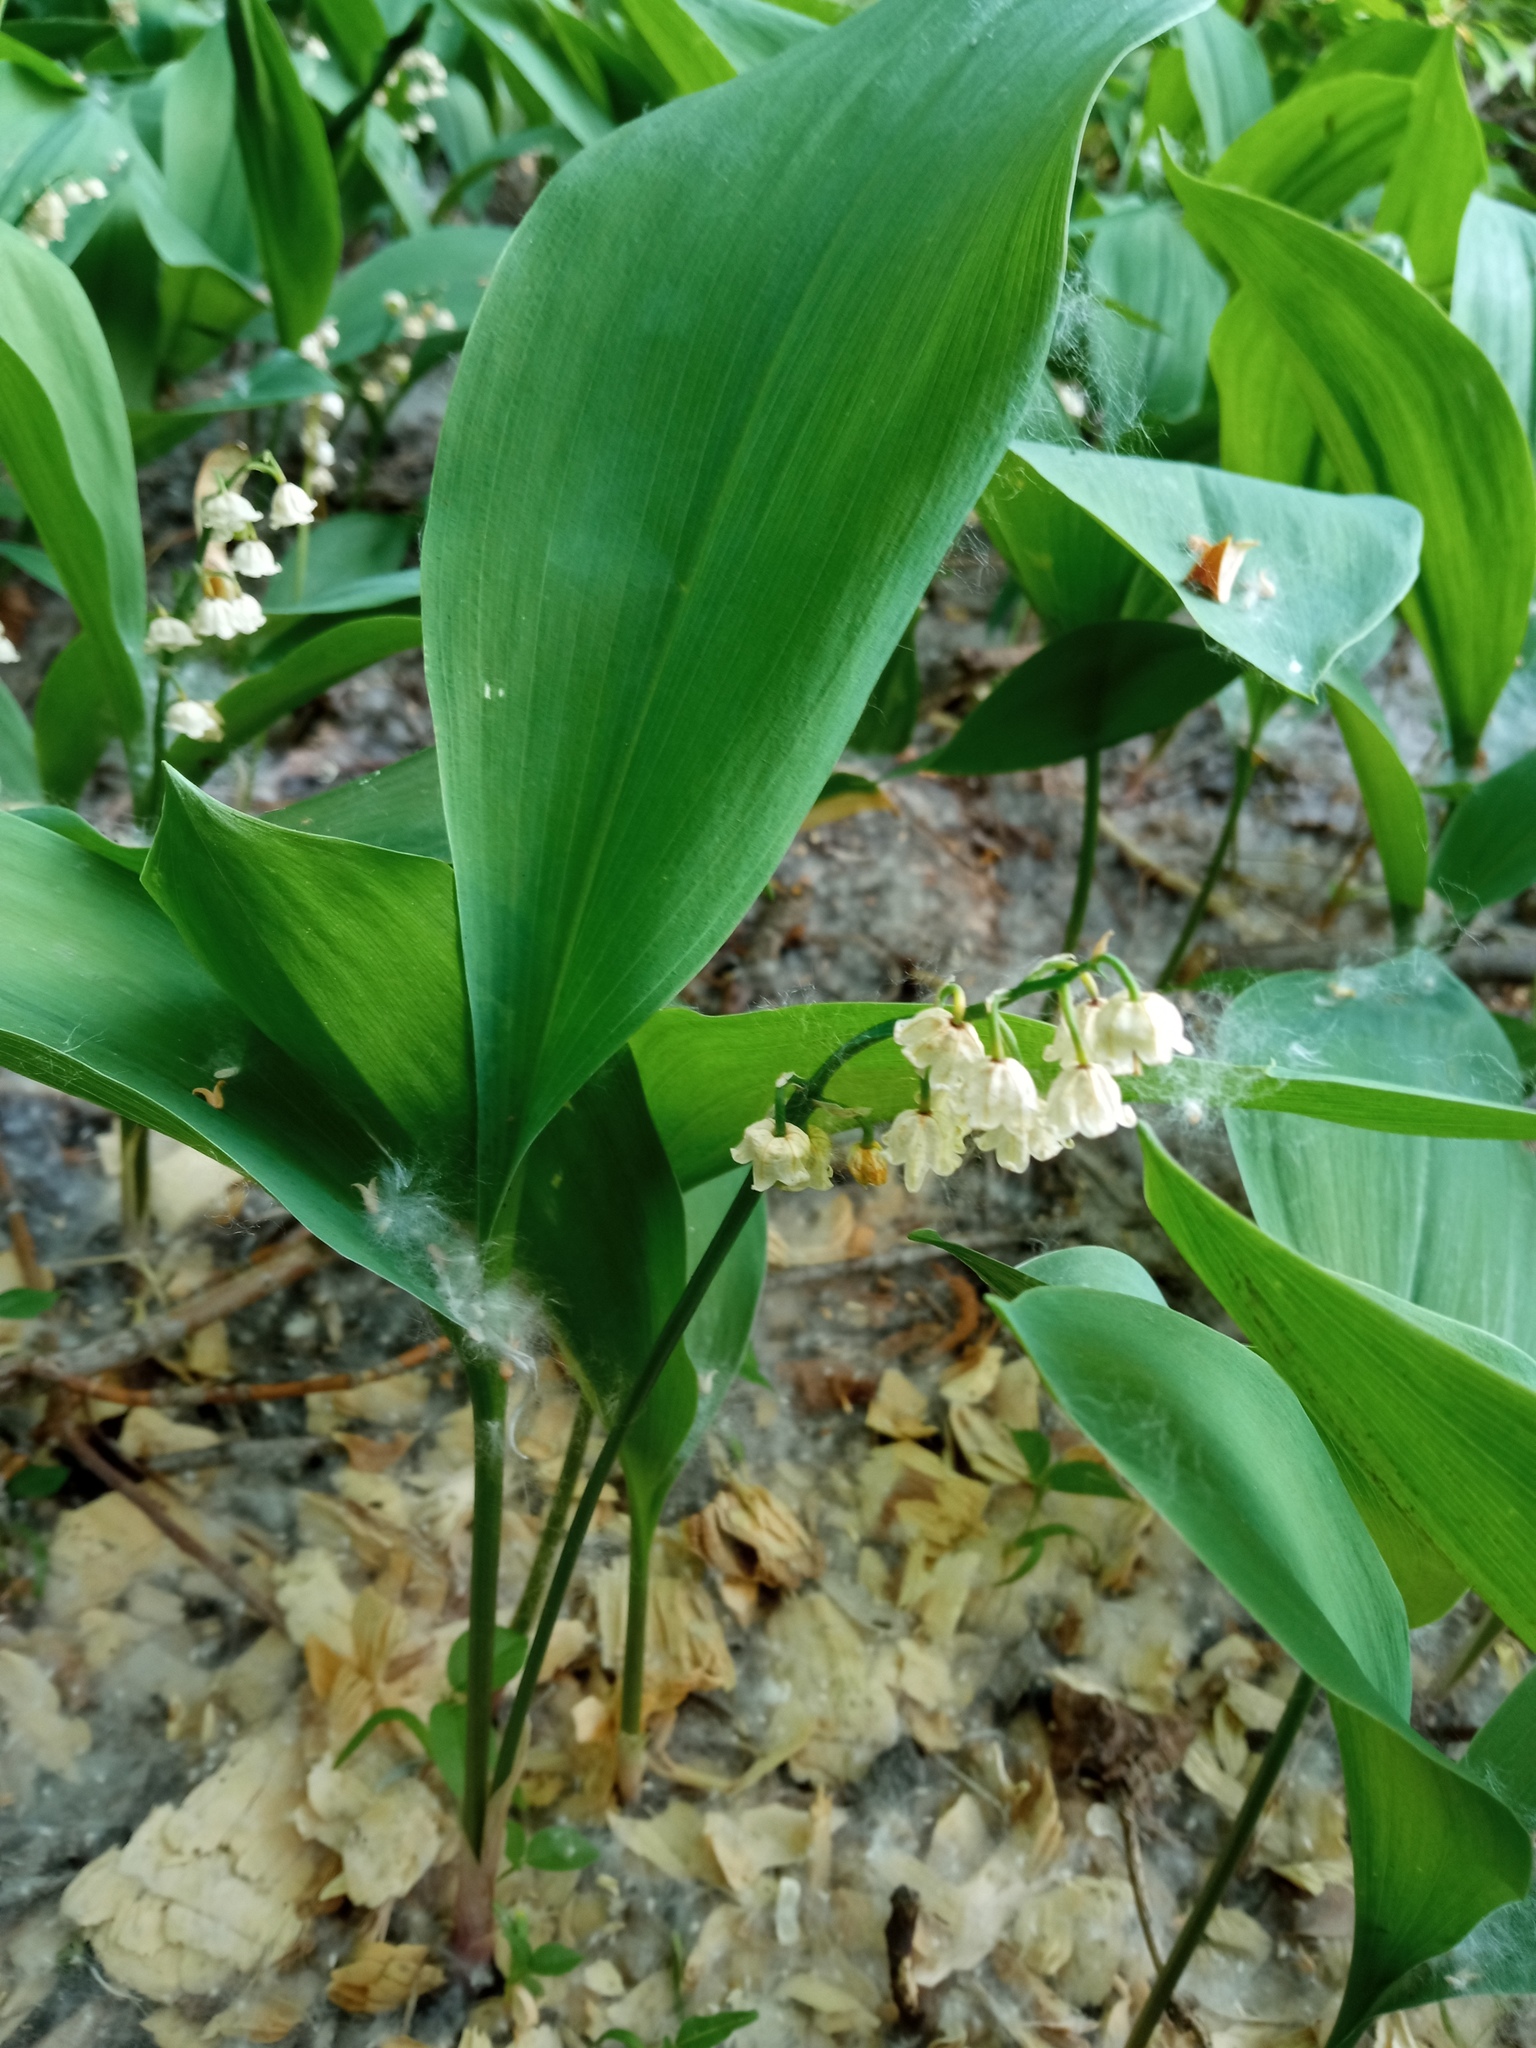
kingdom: Plantae
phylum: Tracheophyta
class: Liliopsida
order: Asparagales
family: Asparagaceae
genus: Convallaria
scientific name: Convallaria majalis
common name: Lily-of-the-valley
